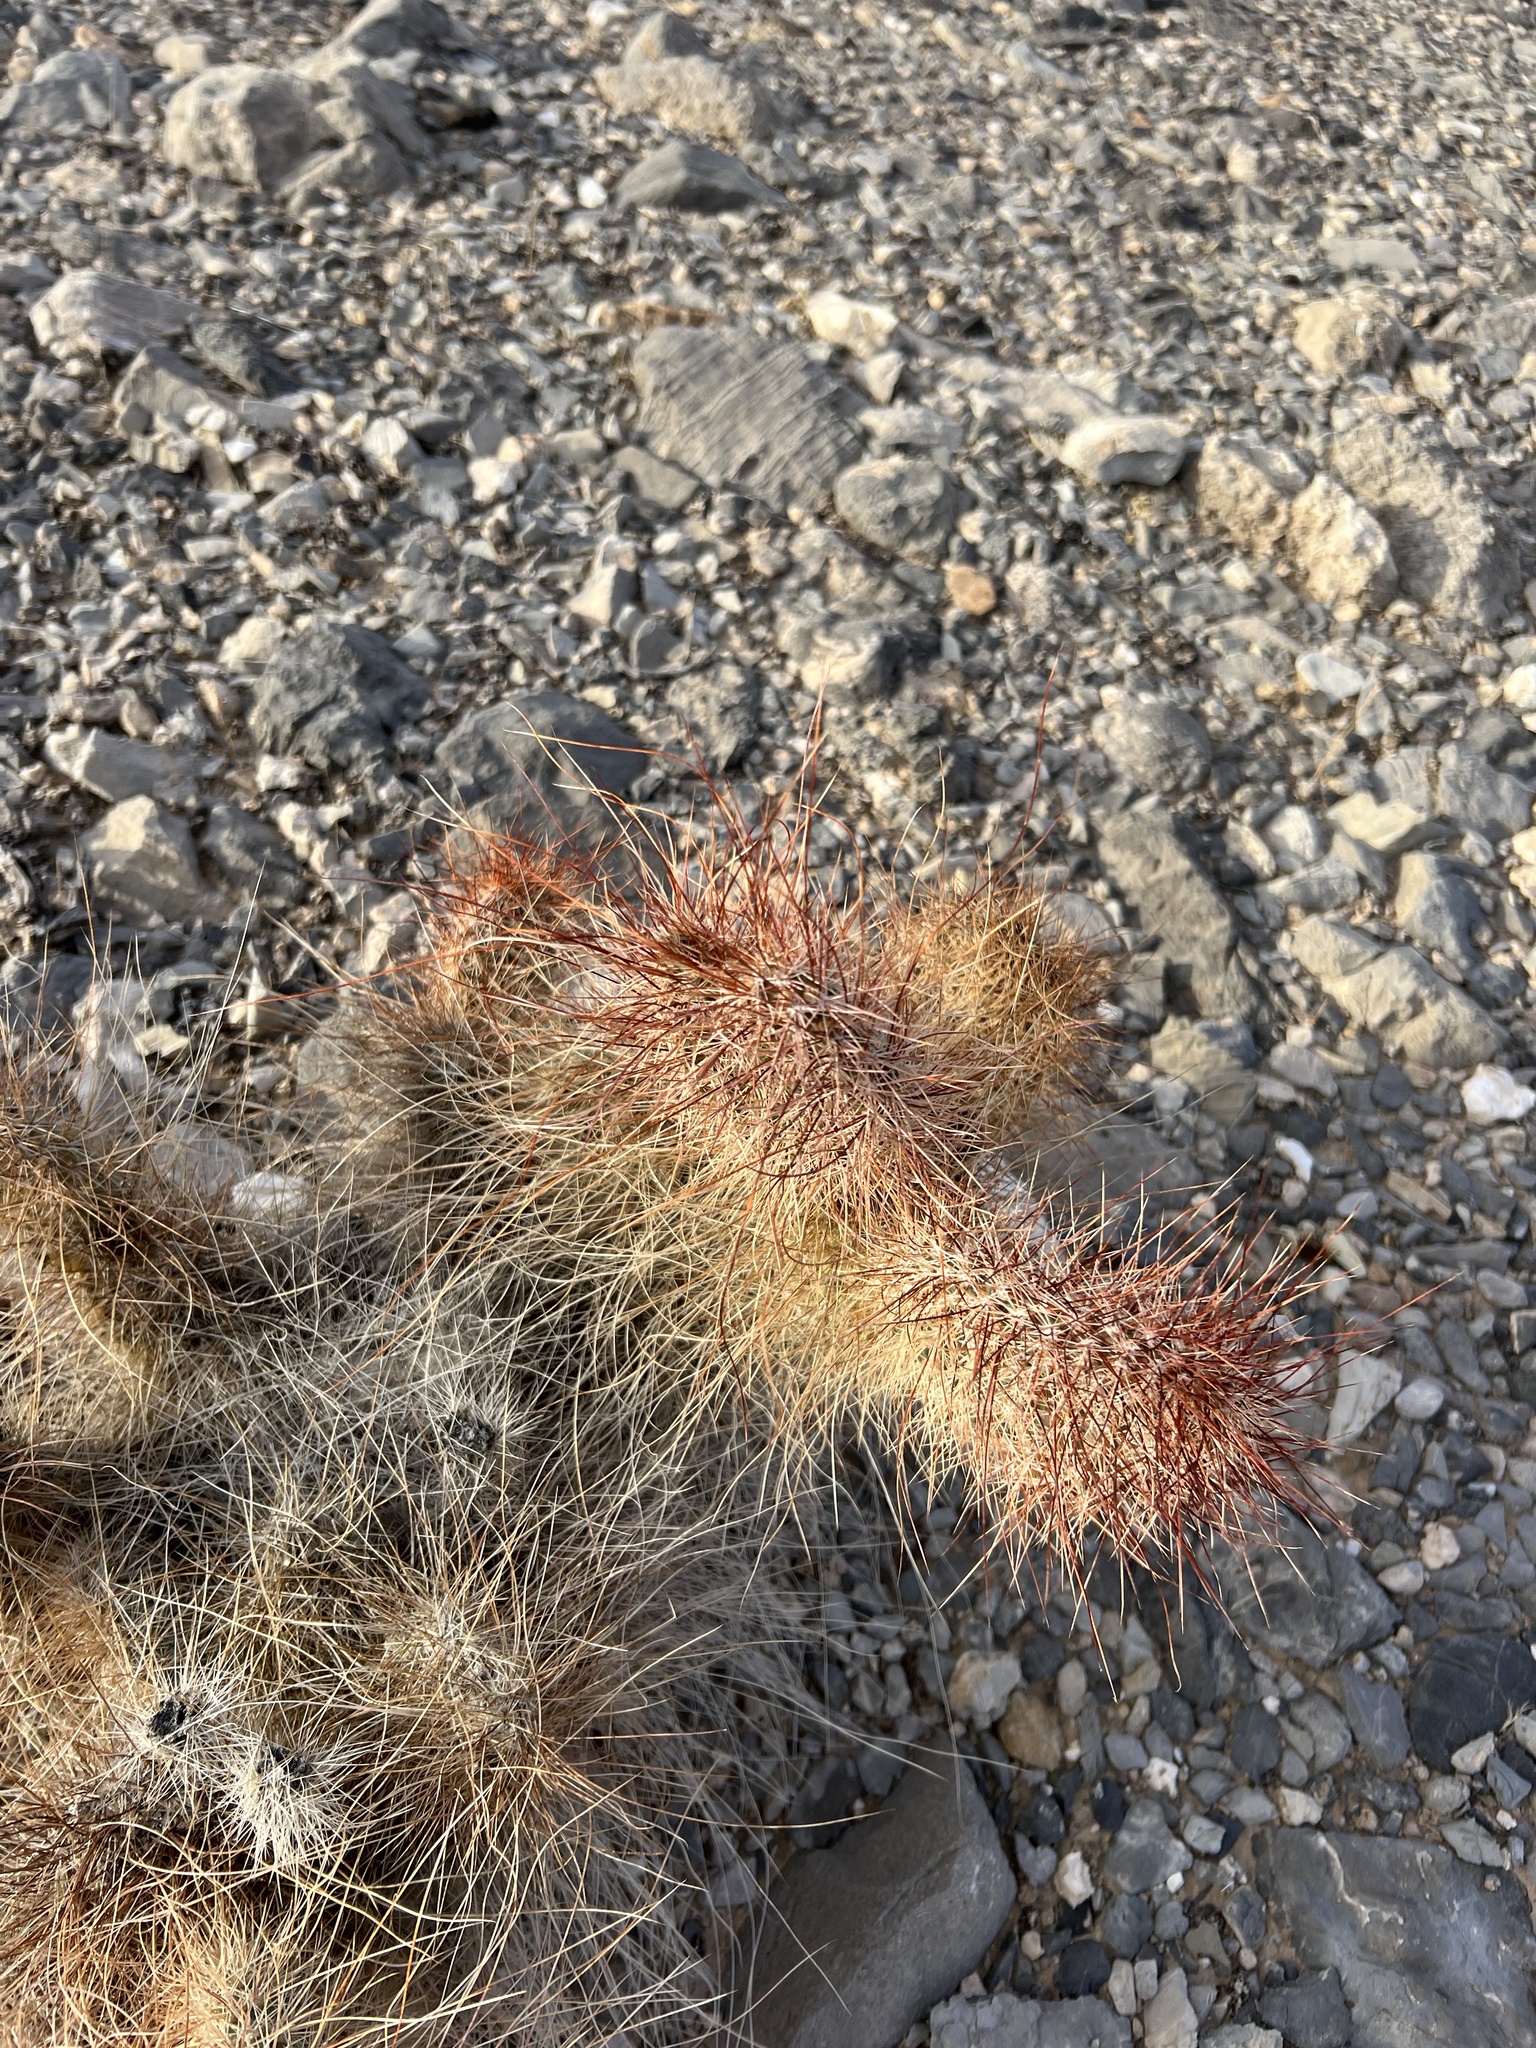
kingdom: Plantae
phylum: Tracheophyta
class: Magnoliopsida
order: Caryophyllales
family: Cactaceae
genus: Opuntia
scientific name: Opuntia polyacantha
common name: Plains prickly-pear
